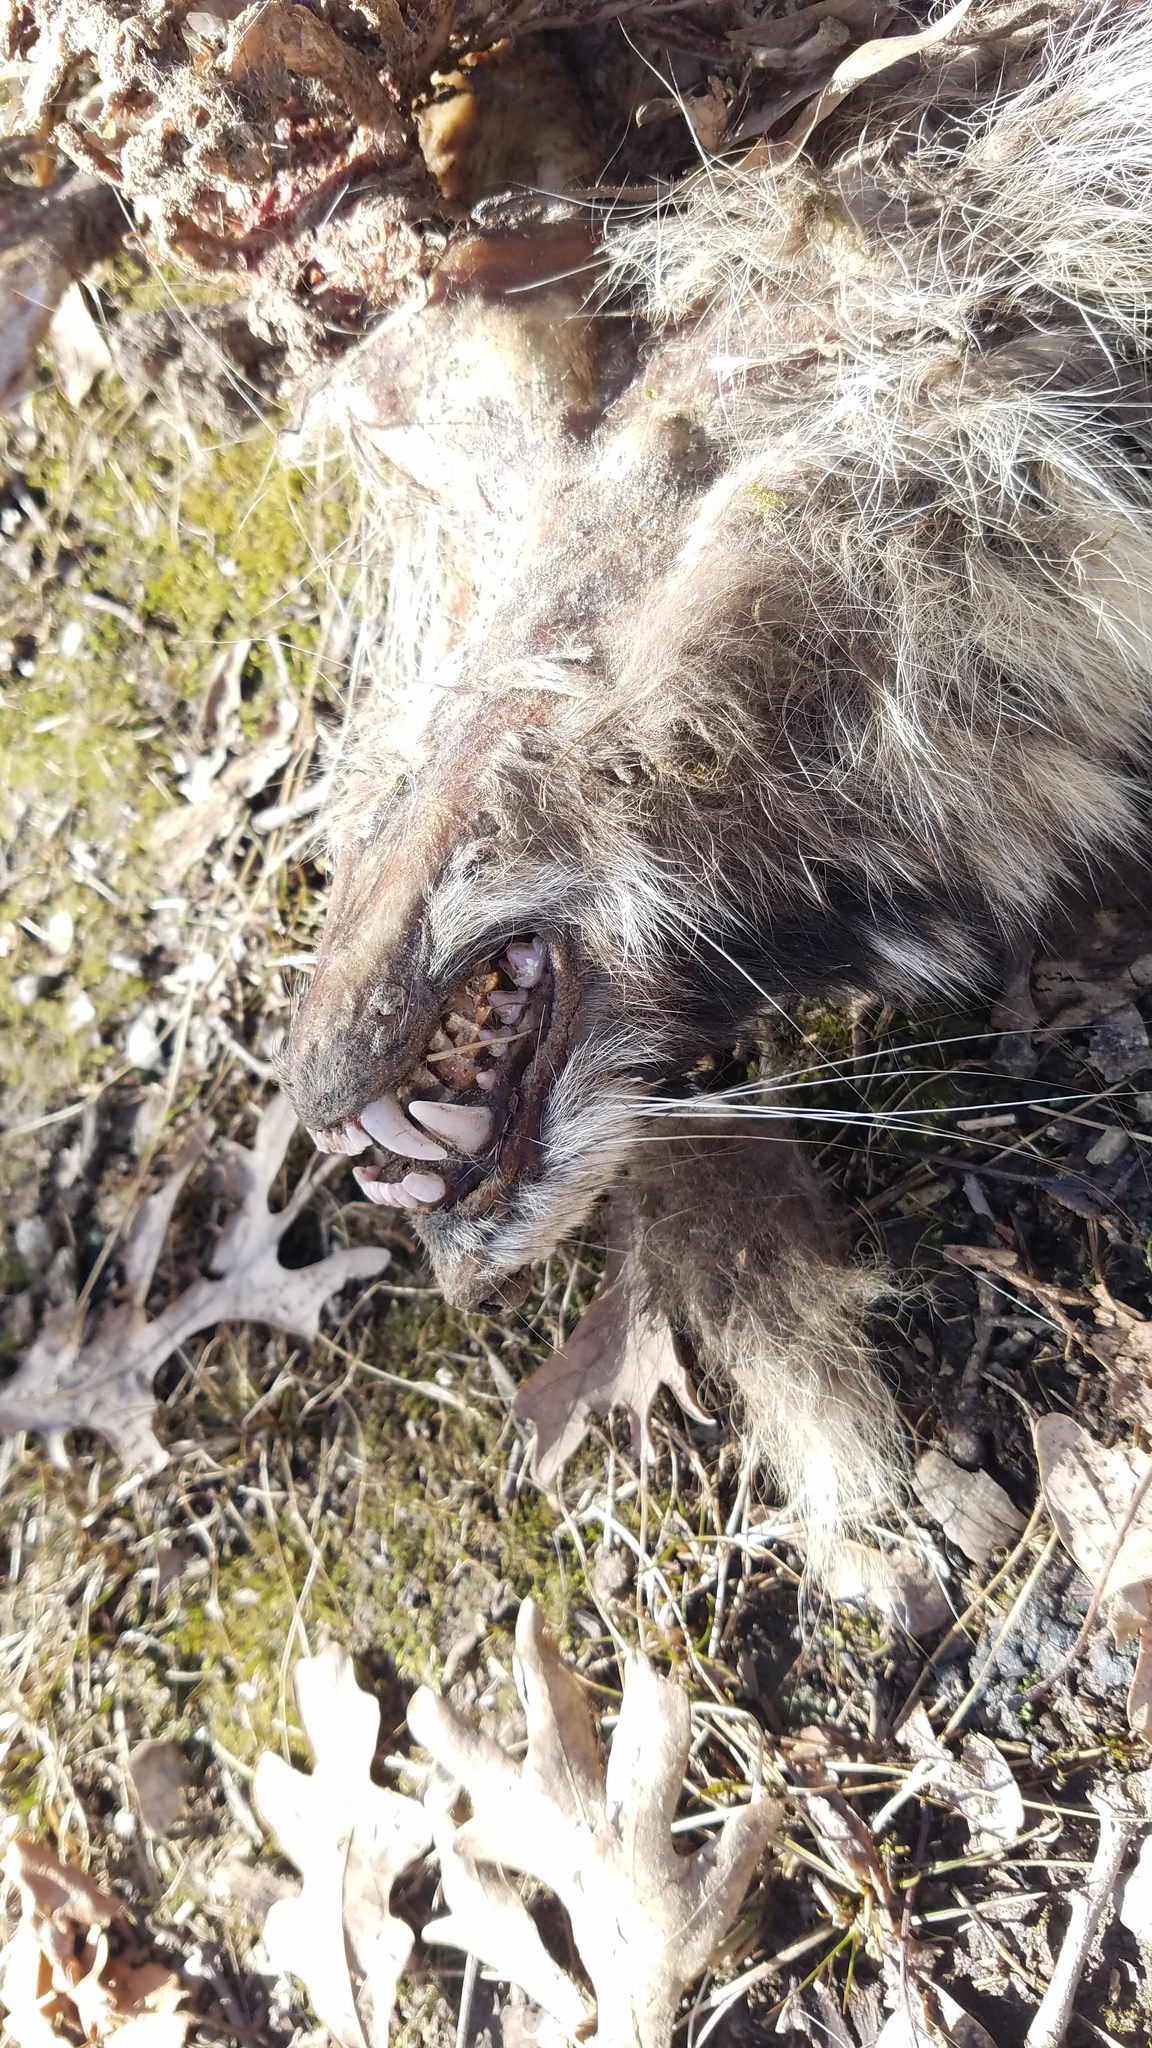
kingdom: Animalia
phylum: Chordata
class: Mammalia
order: Carnivora
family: Procyonidae
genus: Procyon
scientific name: Procyon lotor
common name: Raccoon
